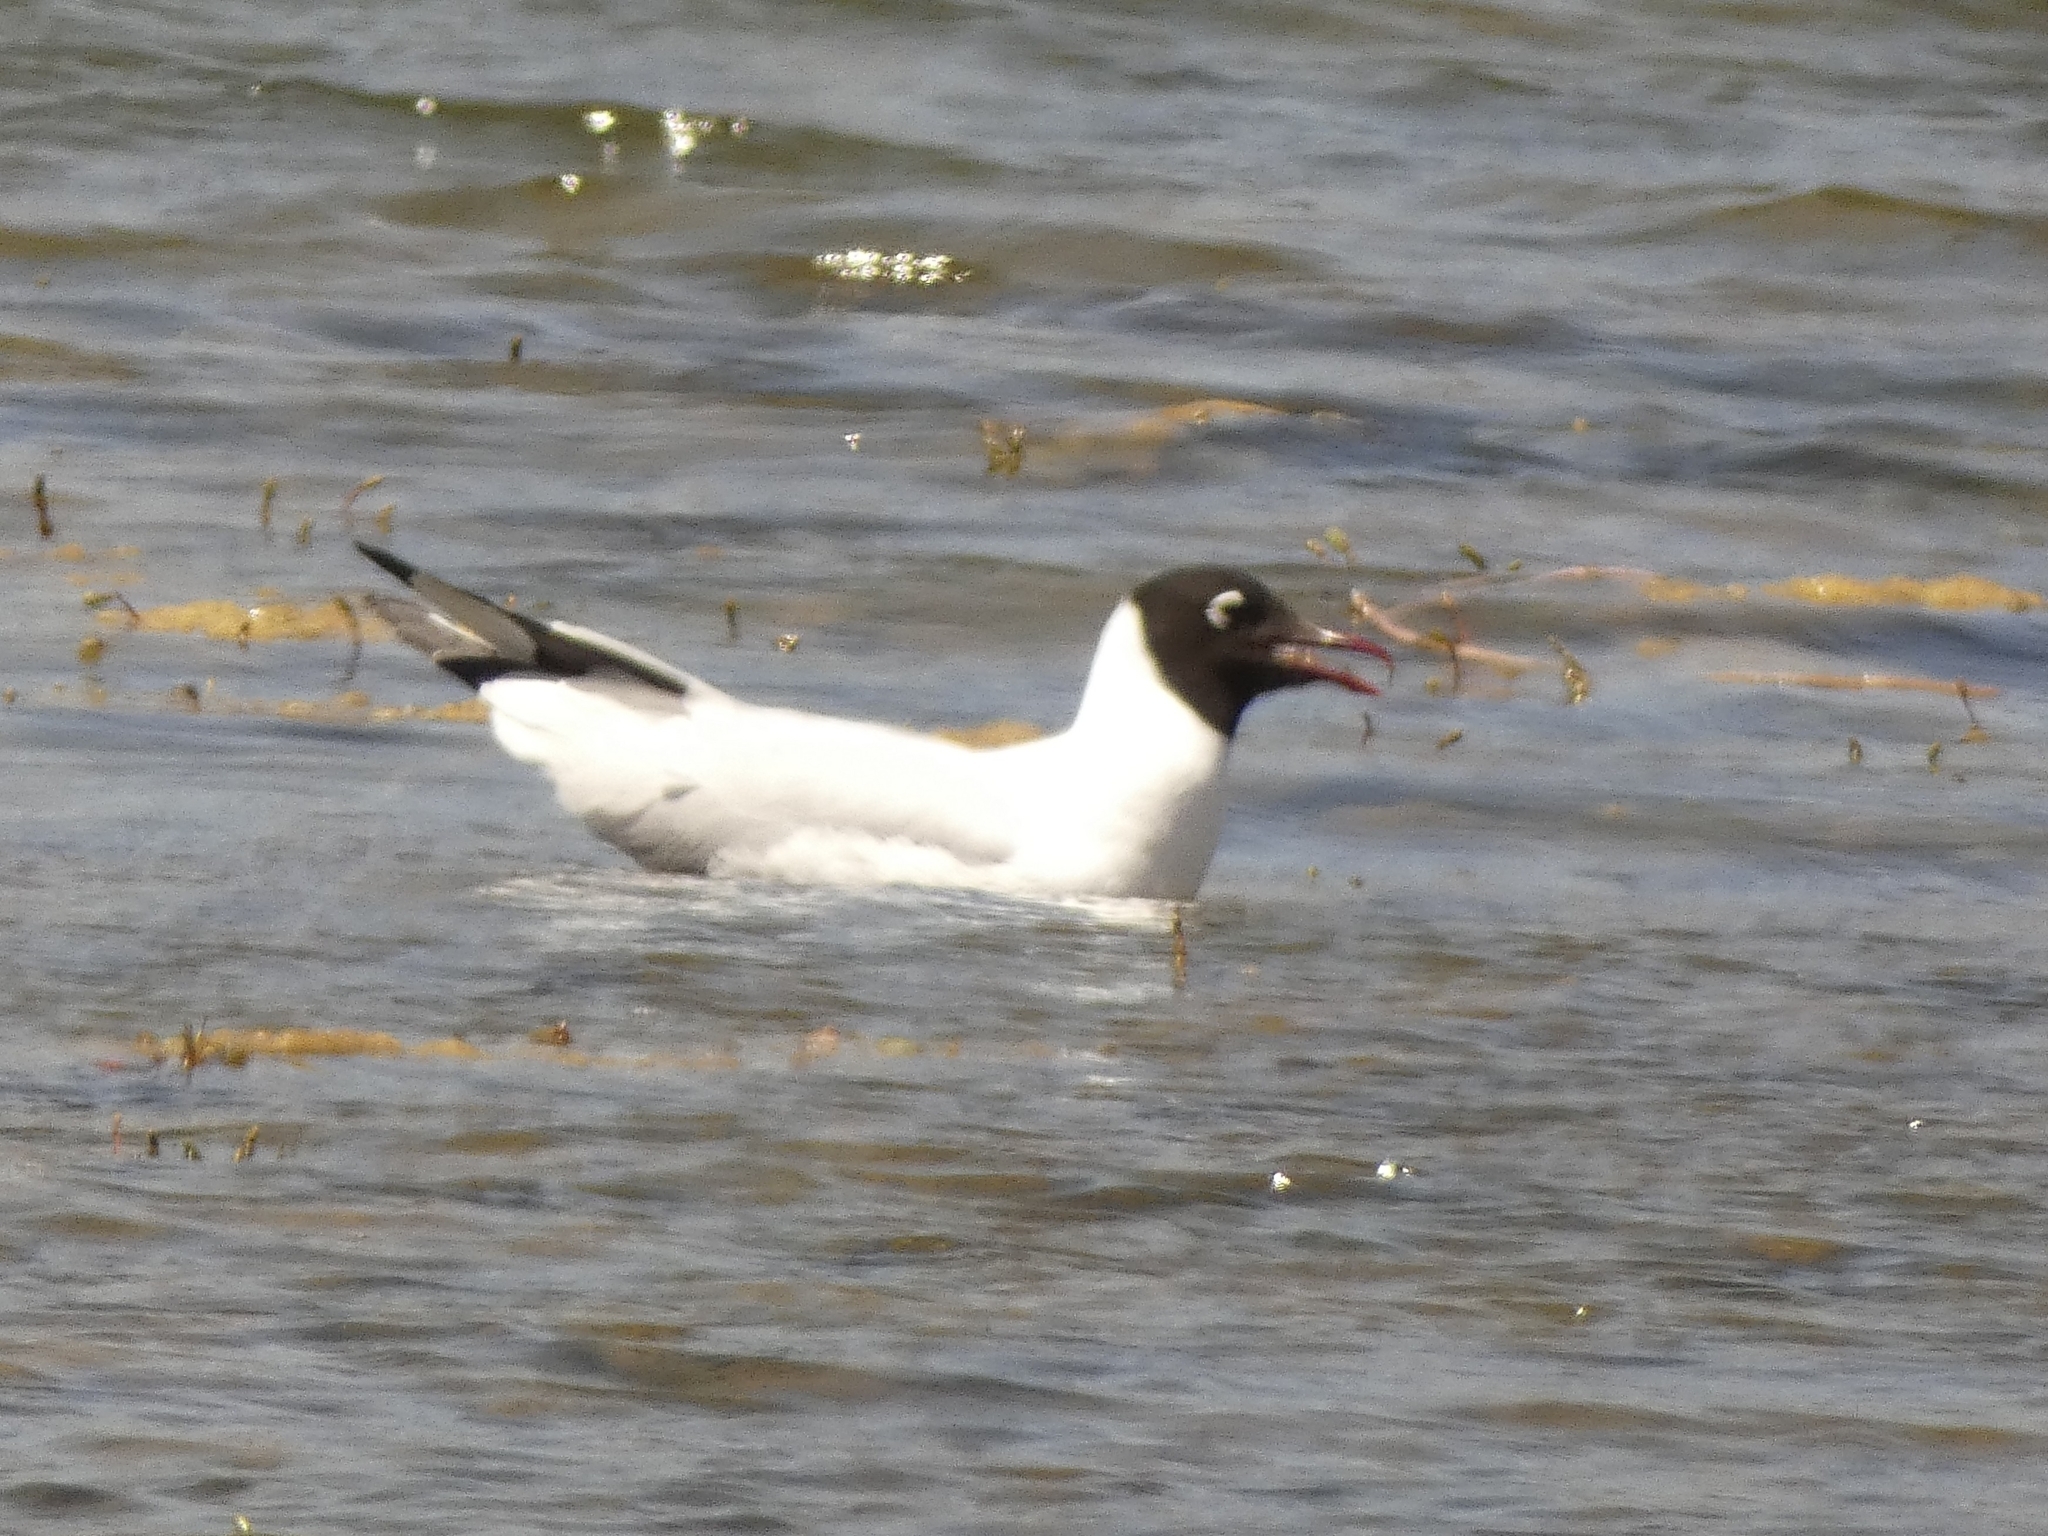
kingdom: Animalia
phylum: Chordata
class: Aves
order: Charadriiformes
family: Laridae
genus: Chroicocephalus
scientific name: Chroicocephalus serranus
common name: Andean gull
